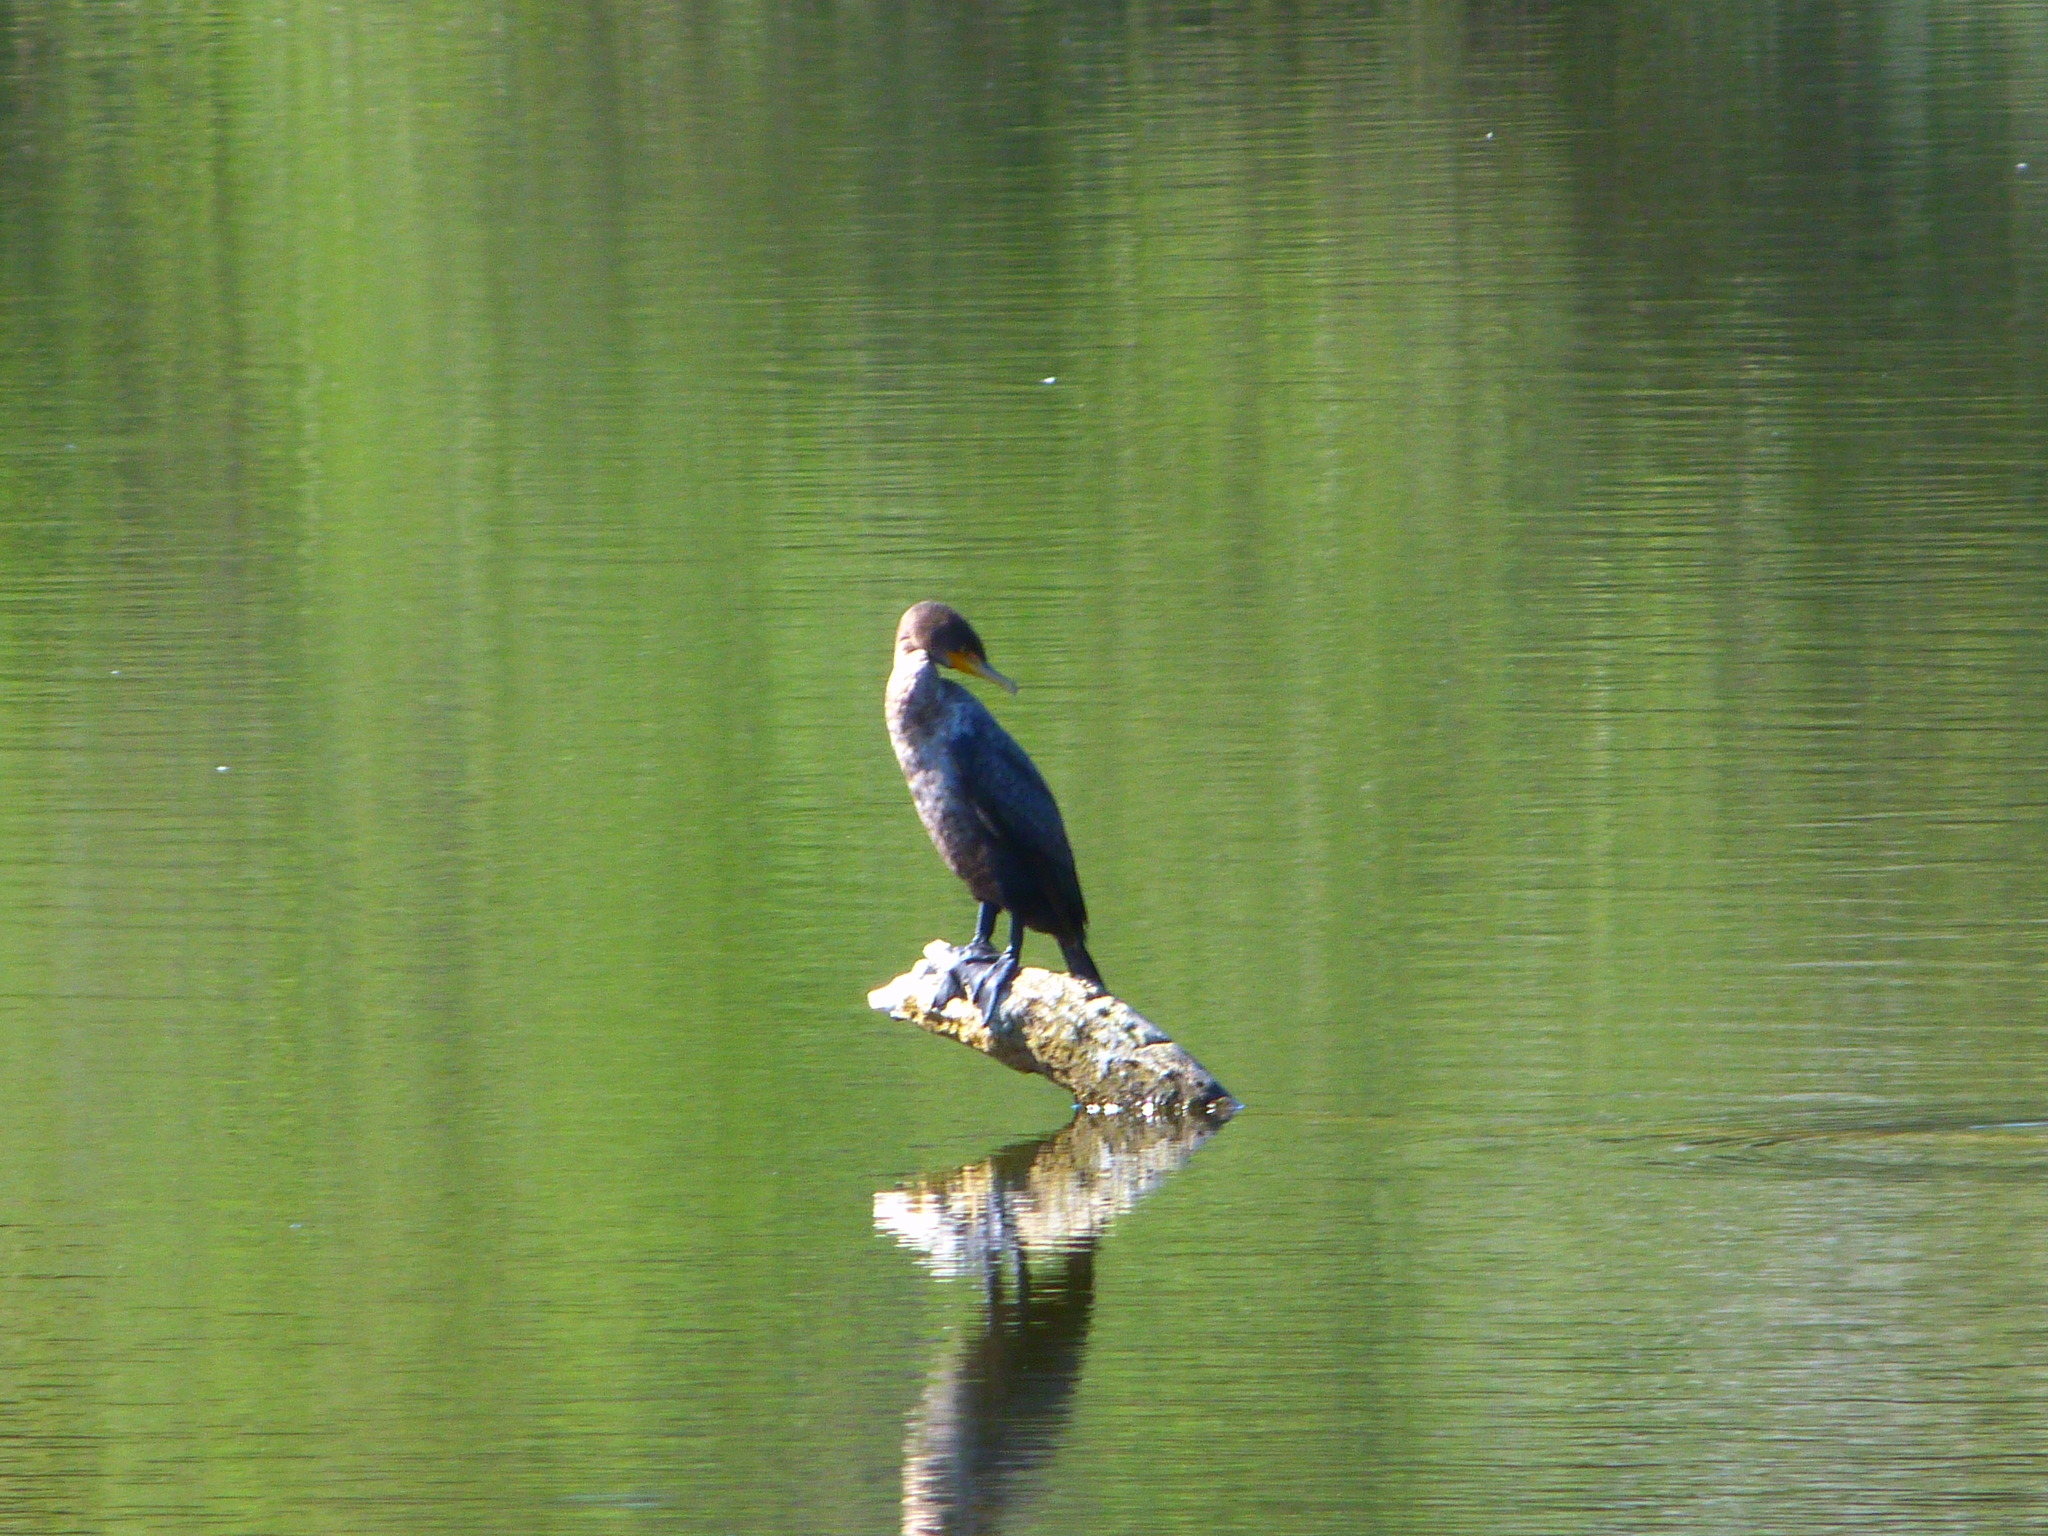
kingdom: Animalia
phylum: Chordata
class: Aves
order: Suliformes
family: Phalacrocoracidae
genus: Phalacrocorax
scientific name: Phalacrocorax auritus
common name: Double-crested cormorant
